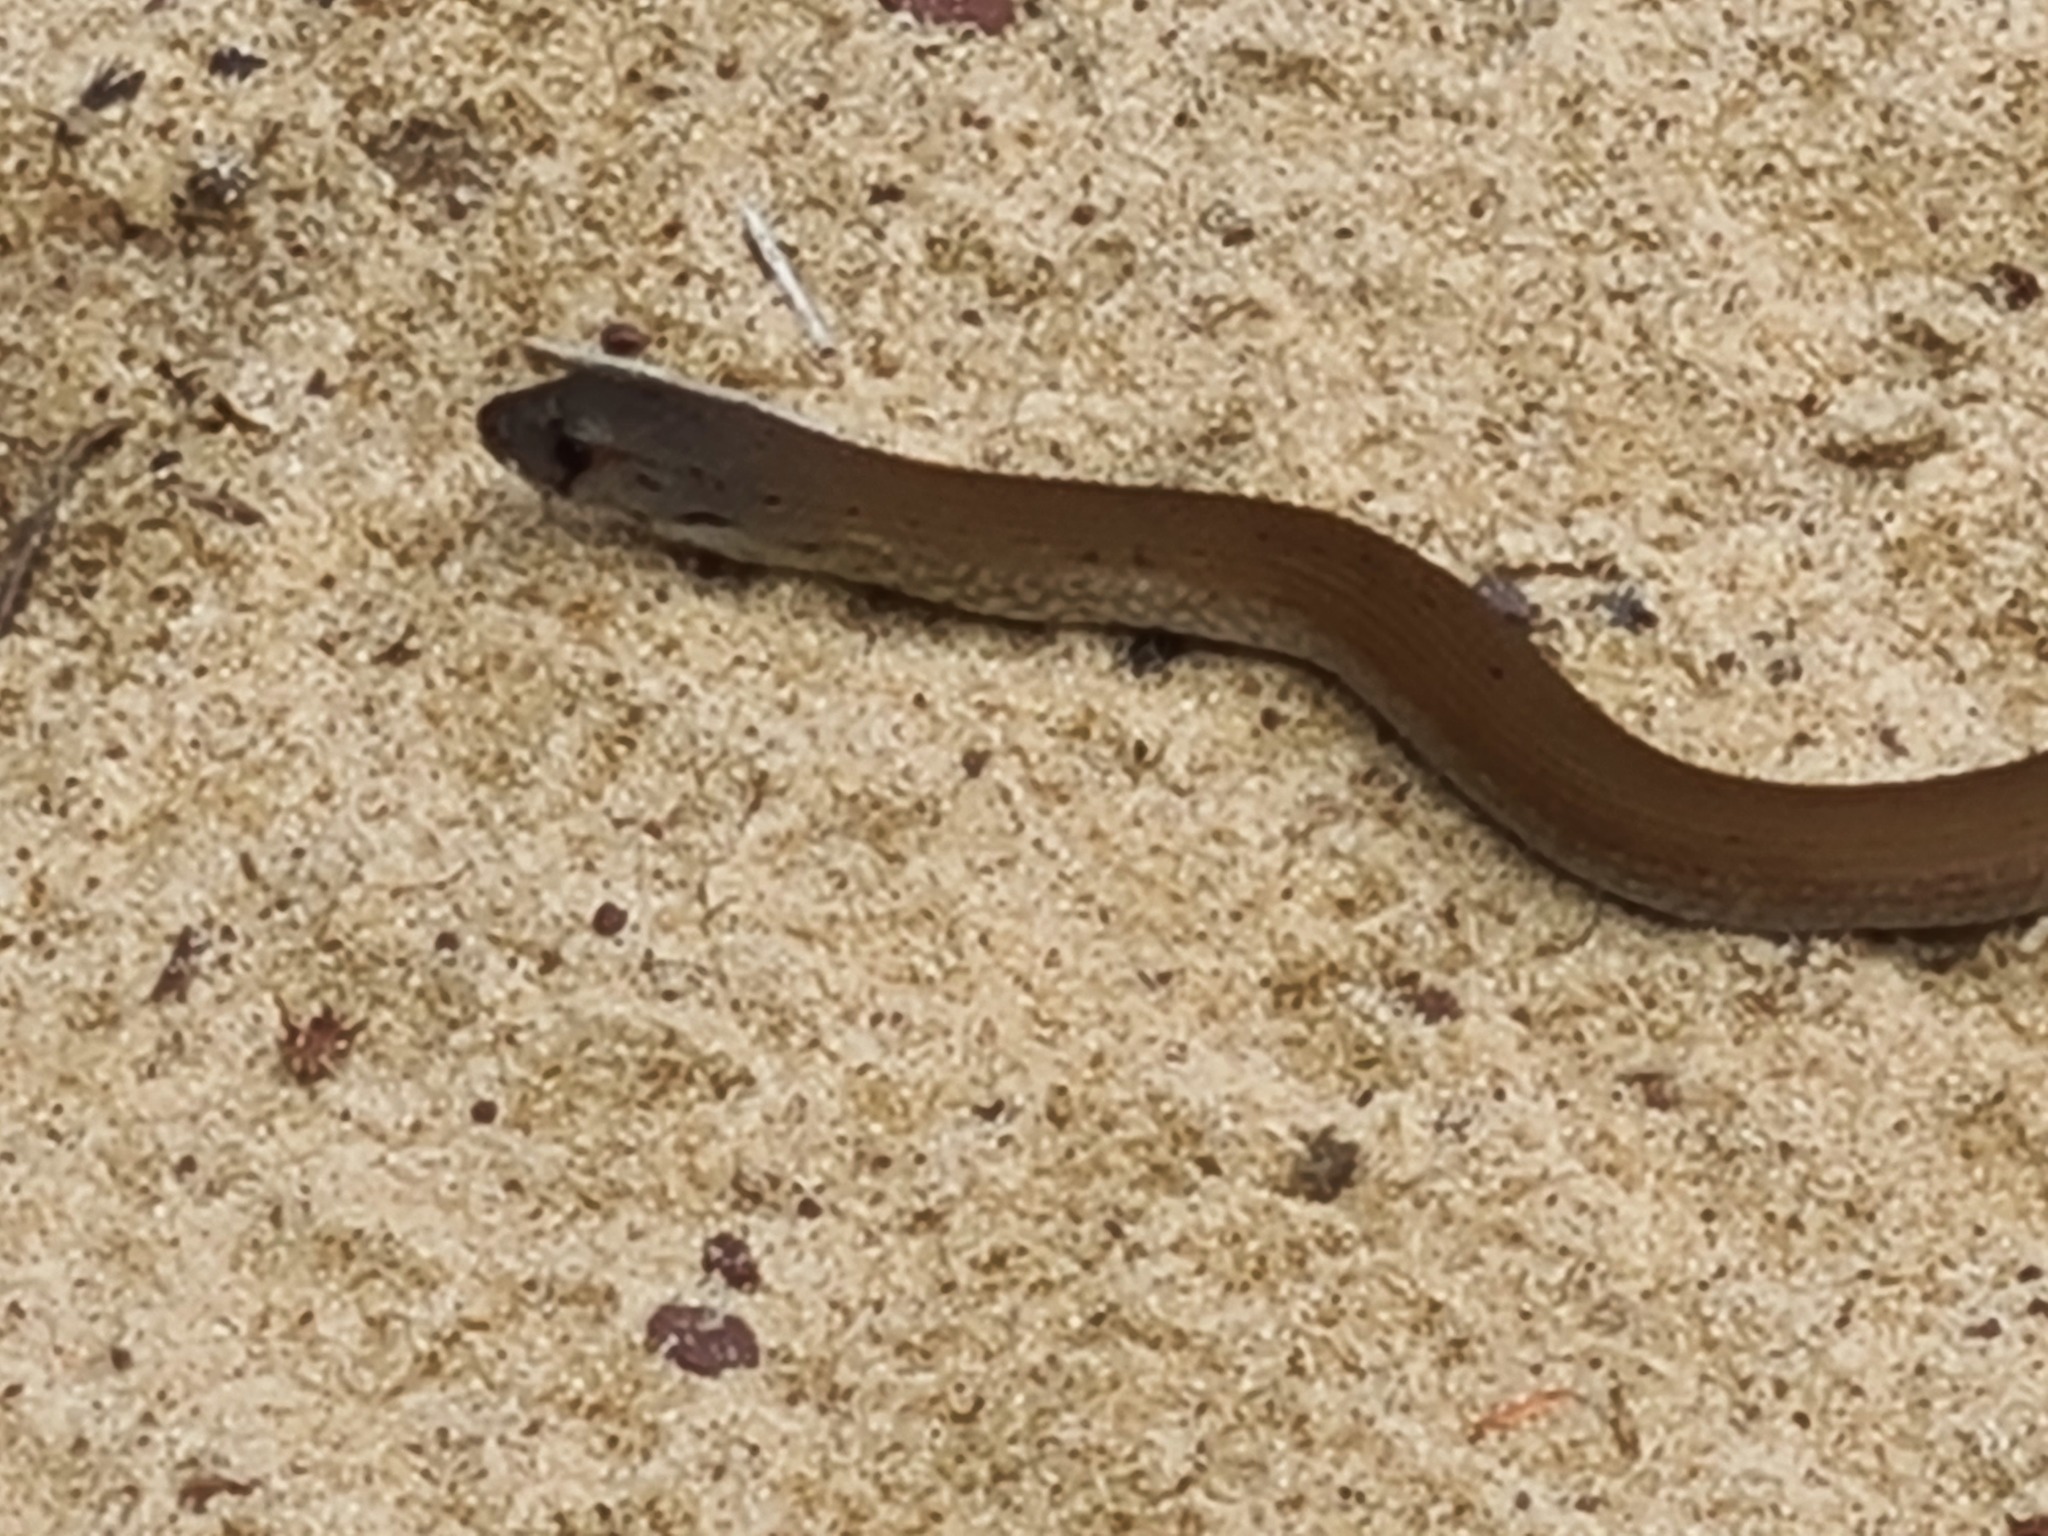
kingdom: Animalia
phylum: Chordata
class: Squamata
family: Pygopodidae
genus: Pygopus
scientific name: Pygopus lepidopodus
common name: Southern scaly-foot
